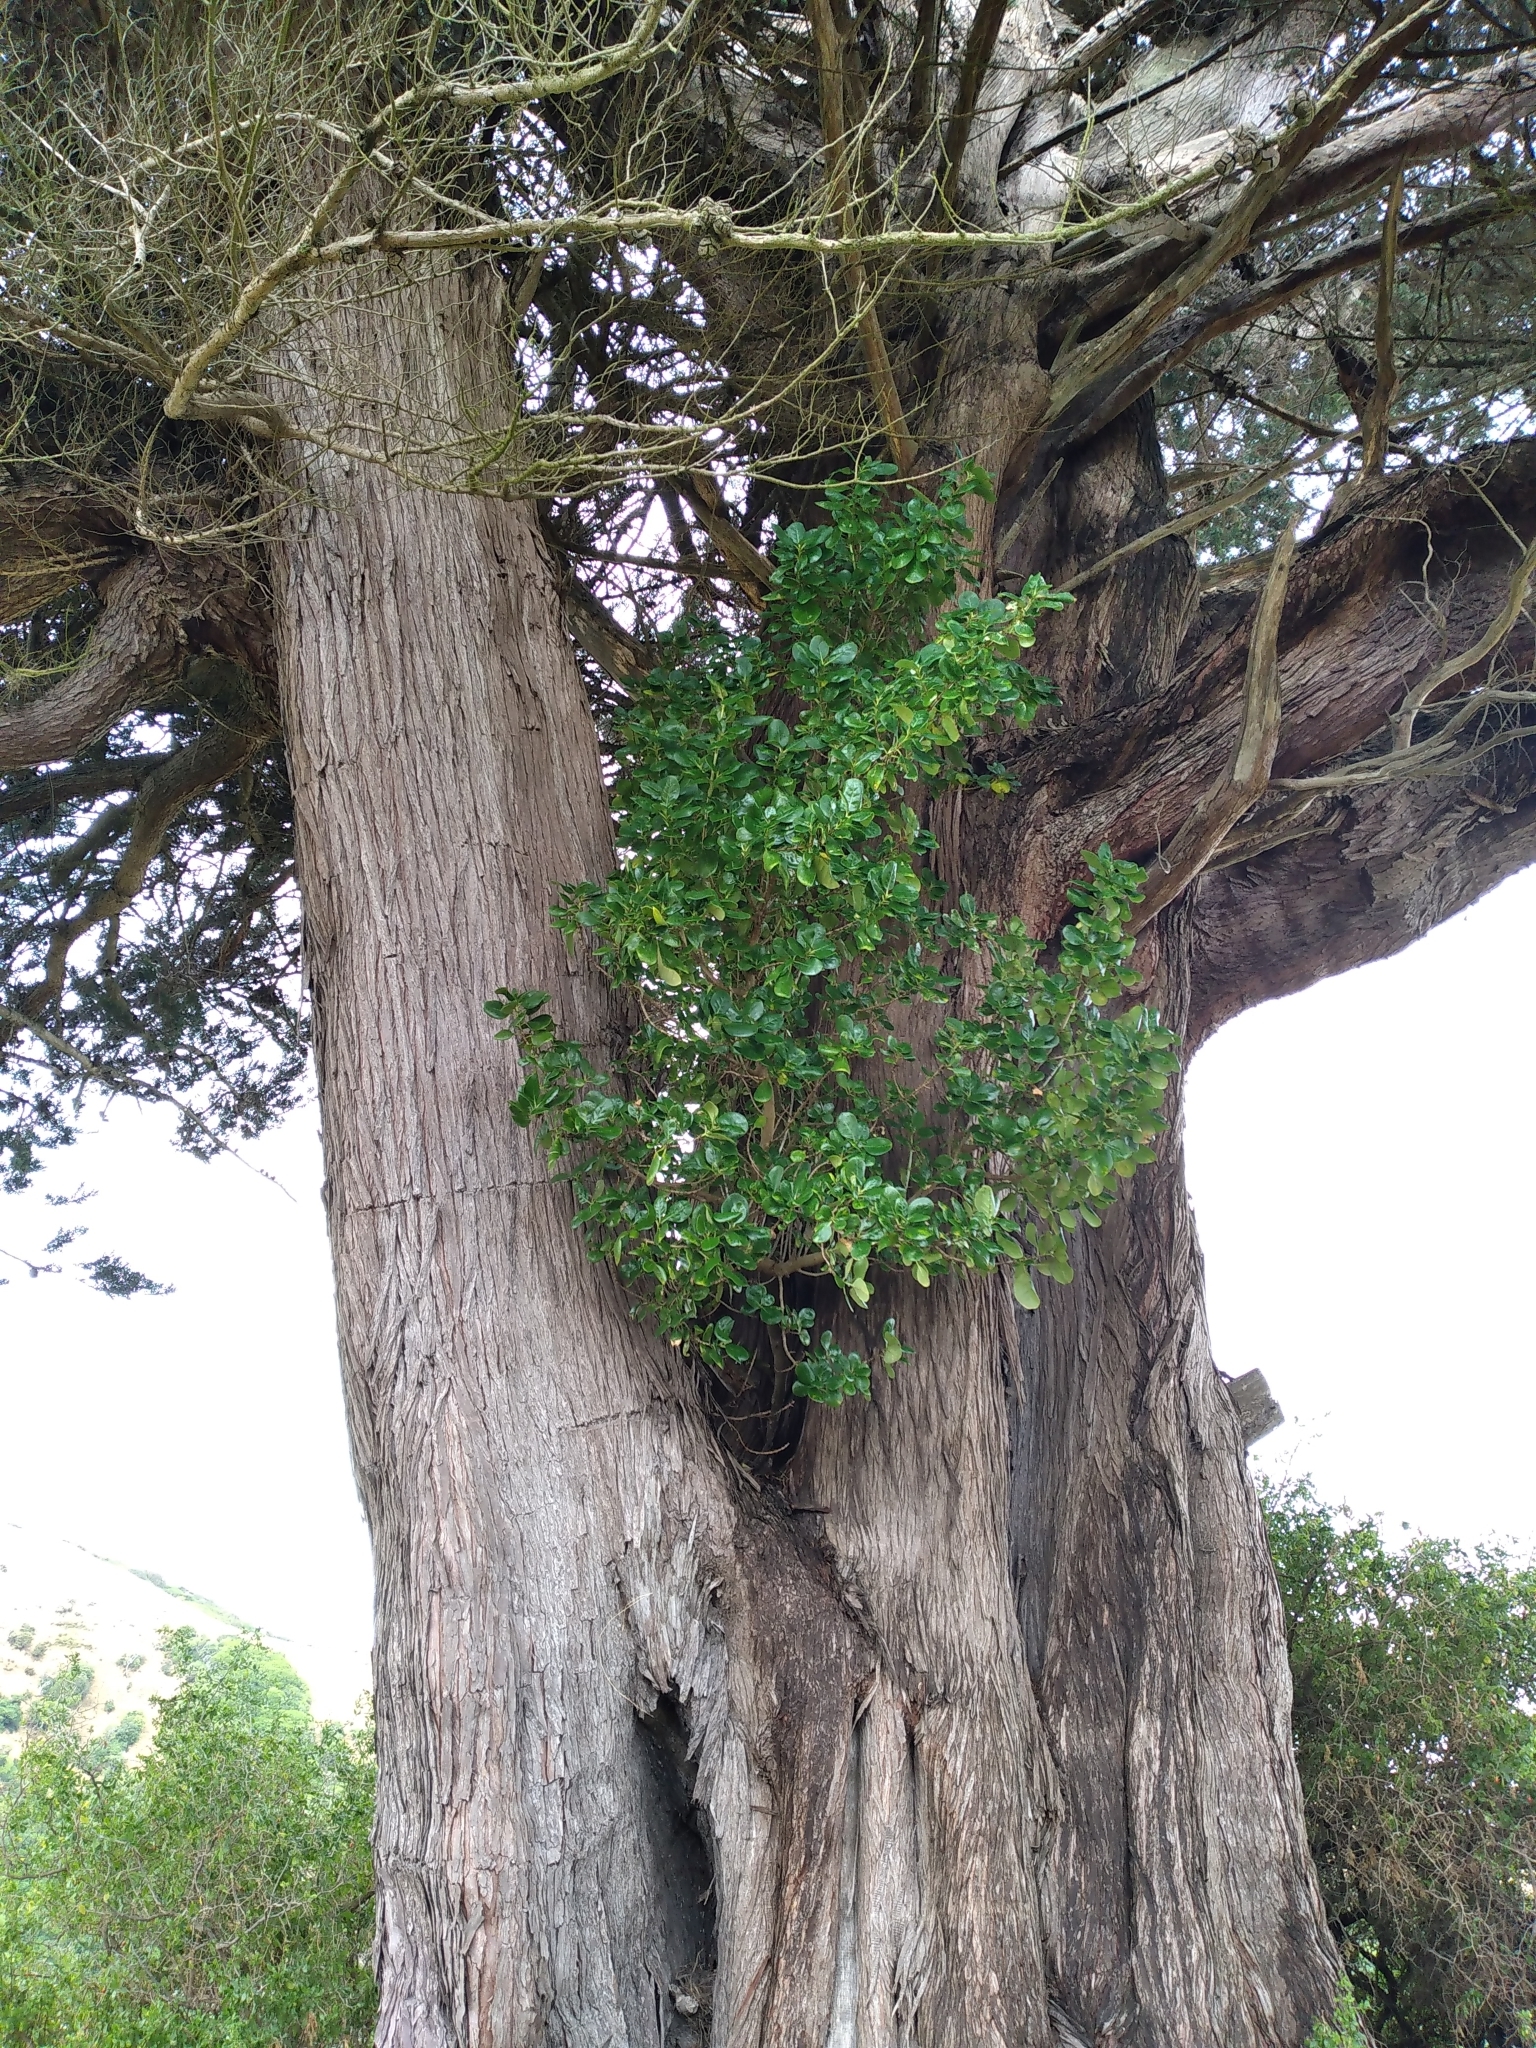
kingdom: Plantae
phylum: Tracheophyta
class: Magnoliopsida
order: Gentianales
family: Rubiaceae
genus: Coprosma
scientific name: Coprosma repens
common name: Tree bedstraw
